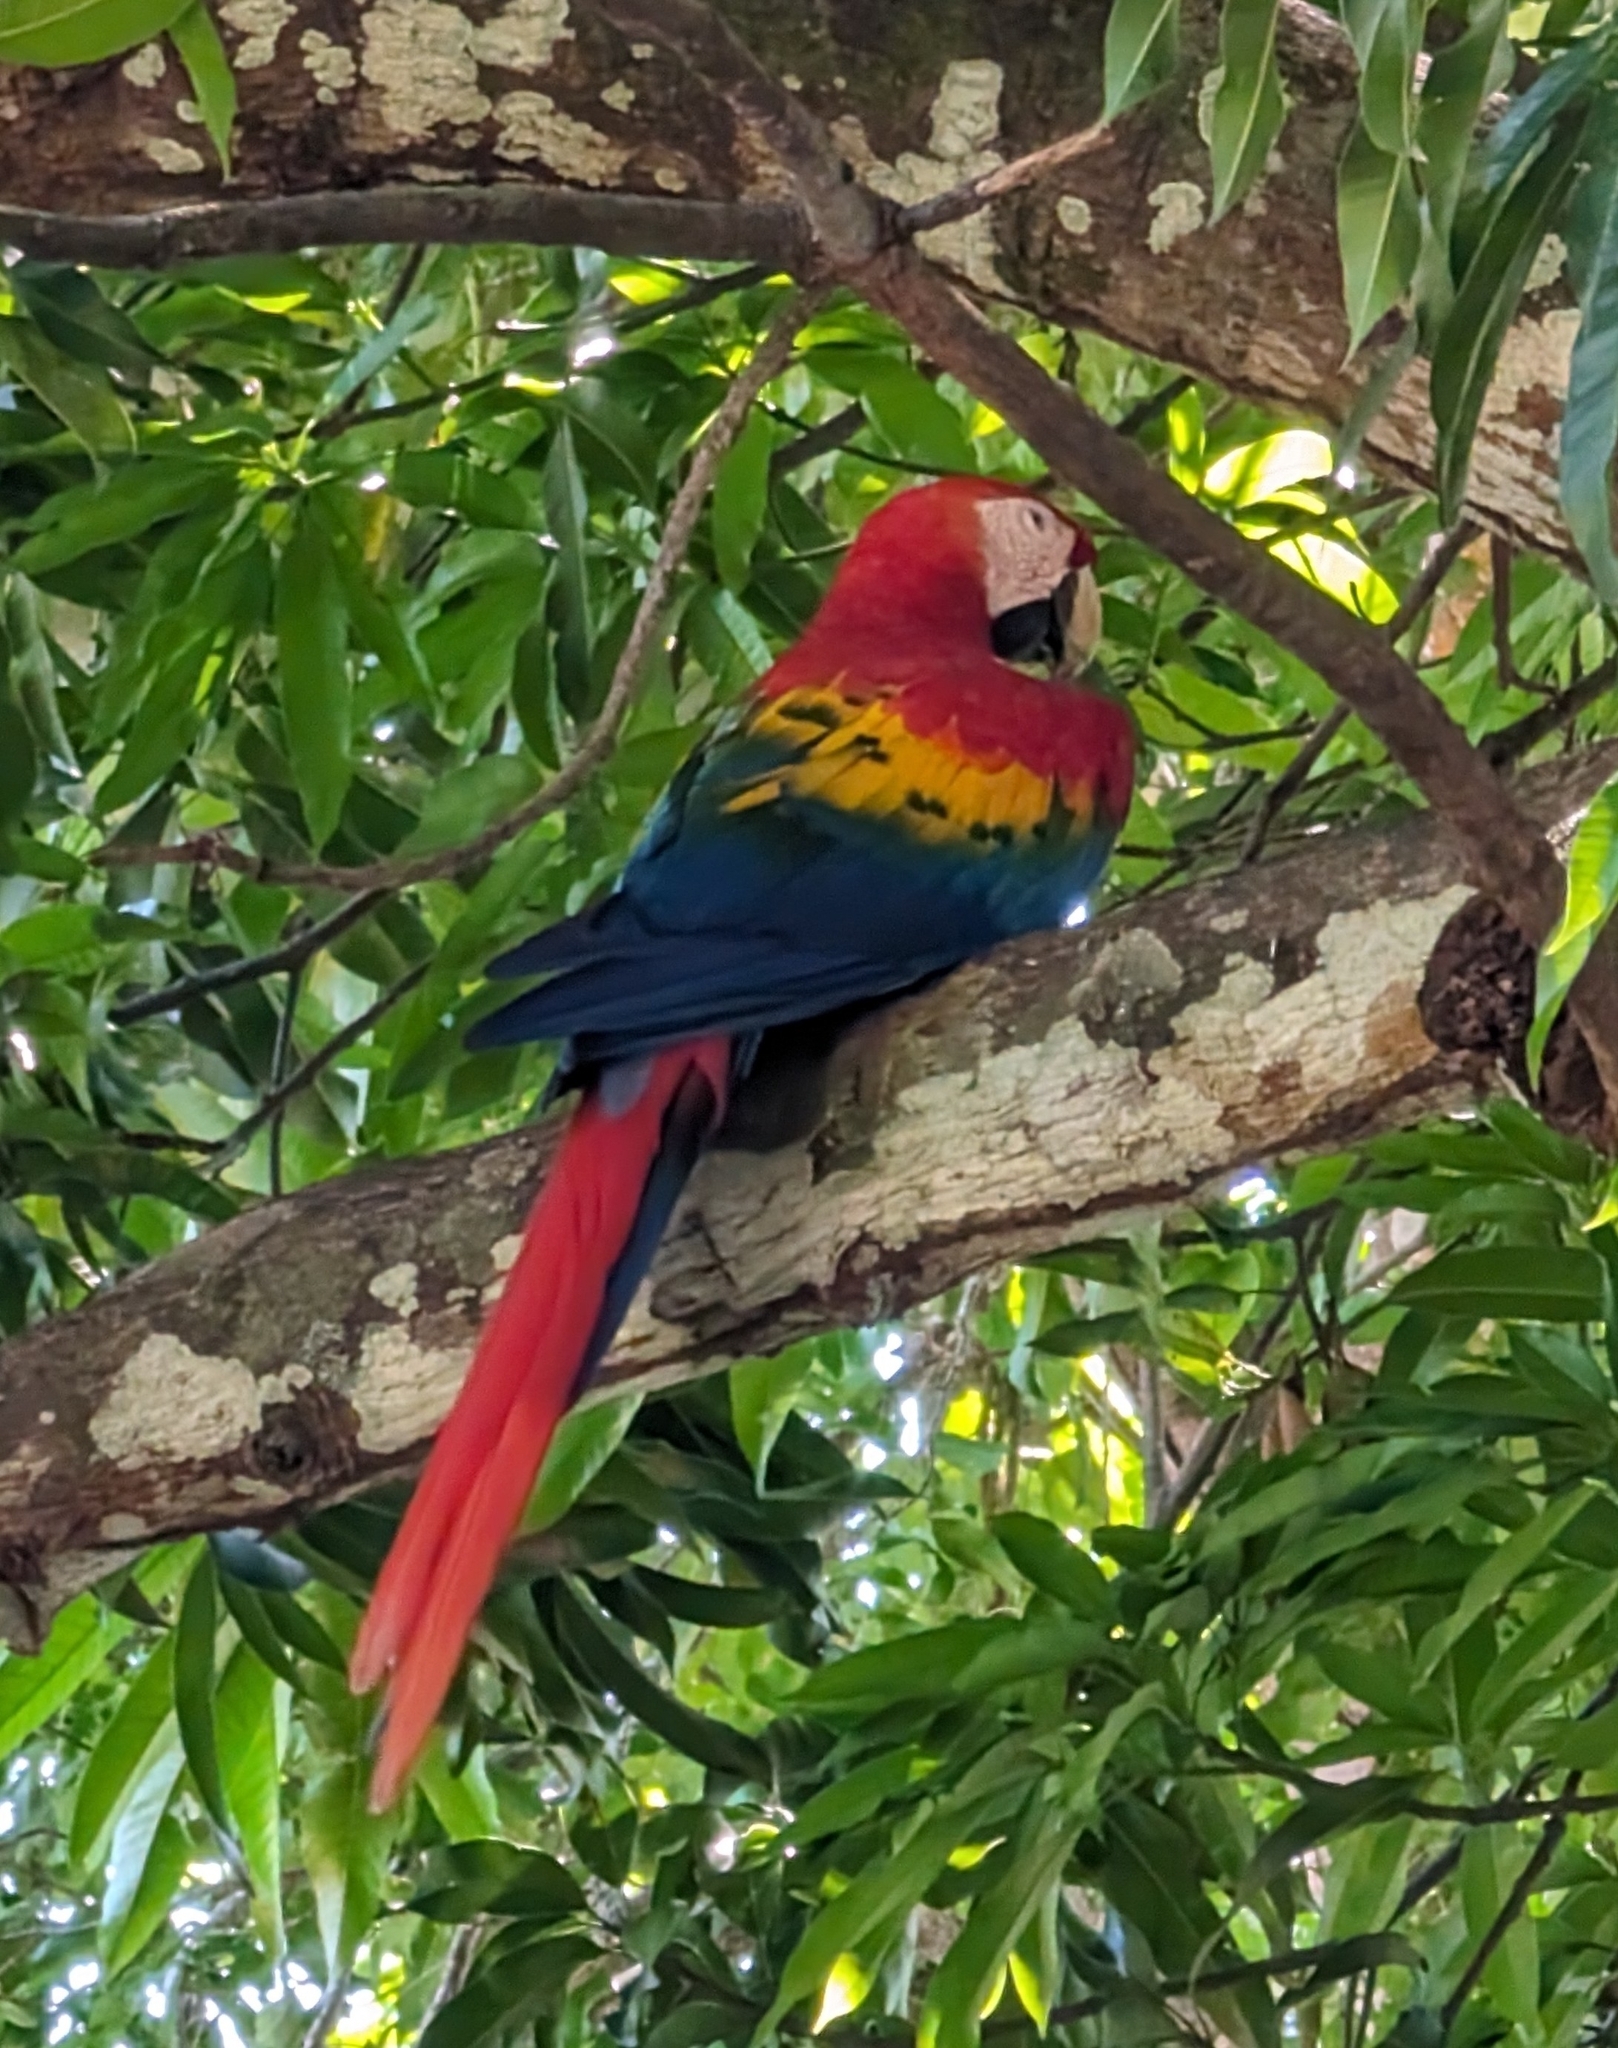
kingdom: Animalia
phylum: Chordata
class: Aves
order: Psittaciformes
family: Psittacidae
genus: Ara
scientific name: Ara macao
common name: Scarlet macaw
